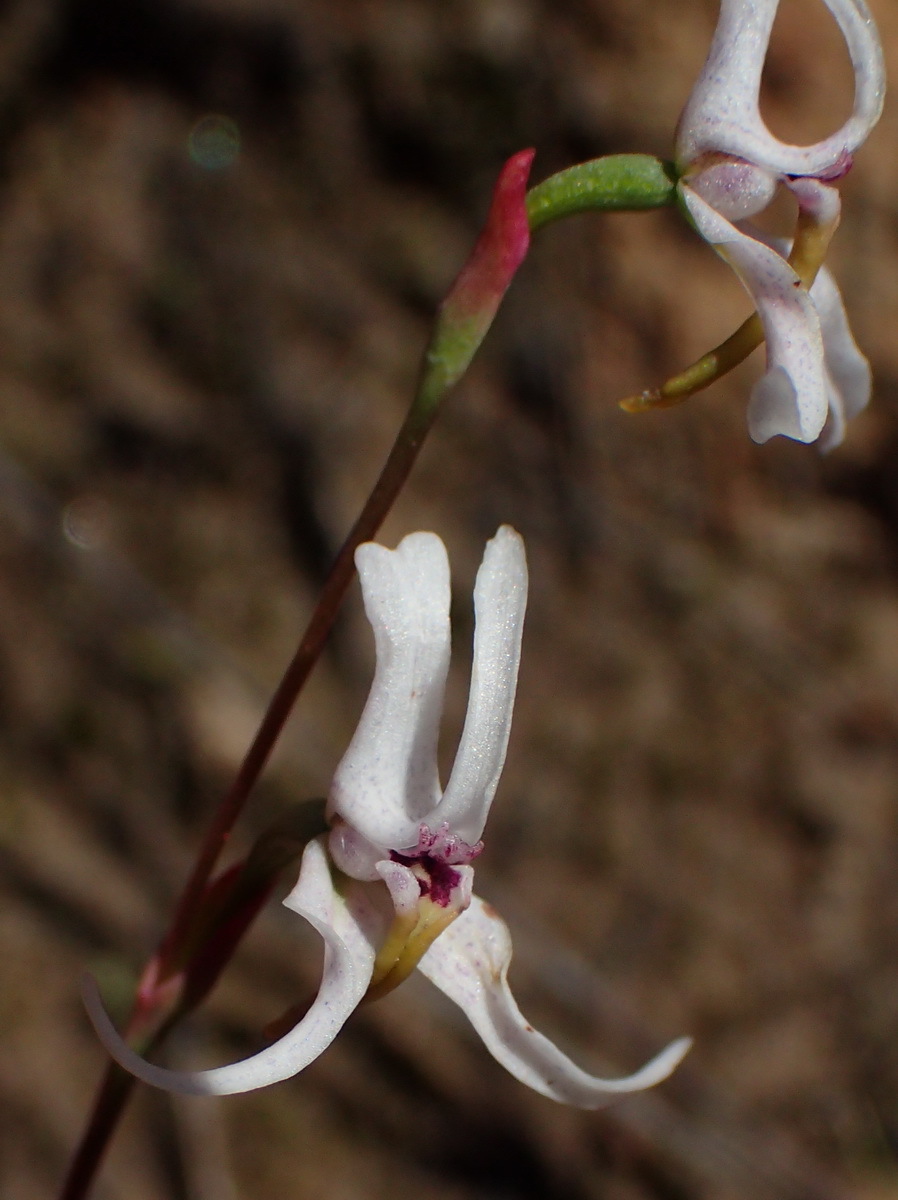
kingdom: Plantae
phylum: Tracheophyta
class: Liliopsida
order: Asparagales
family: Orchidaceae
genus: Disa
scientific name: Disa biflora
